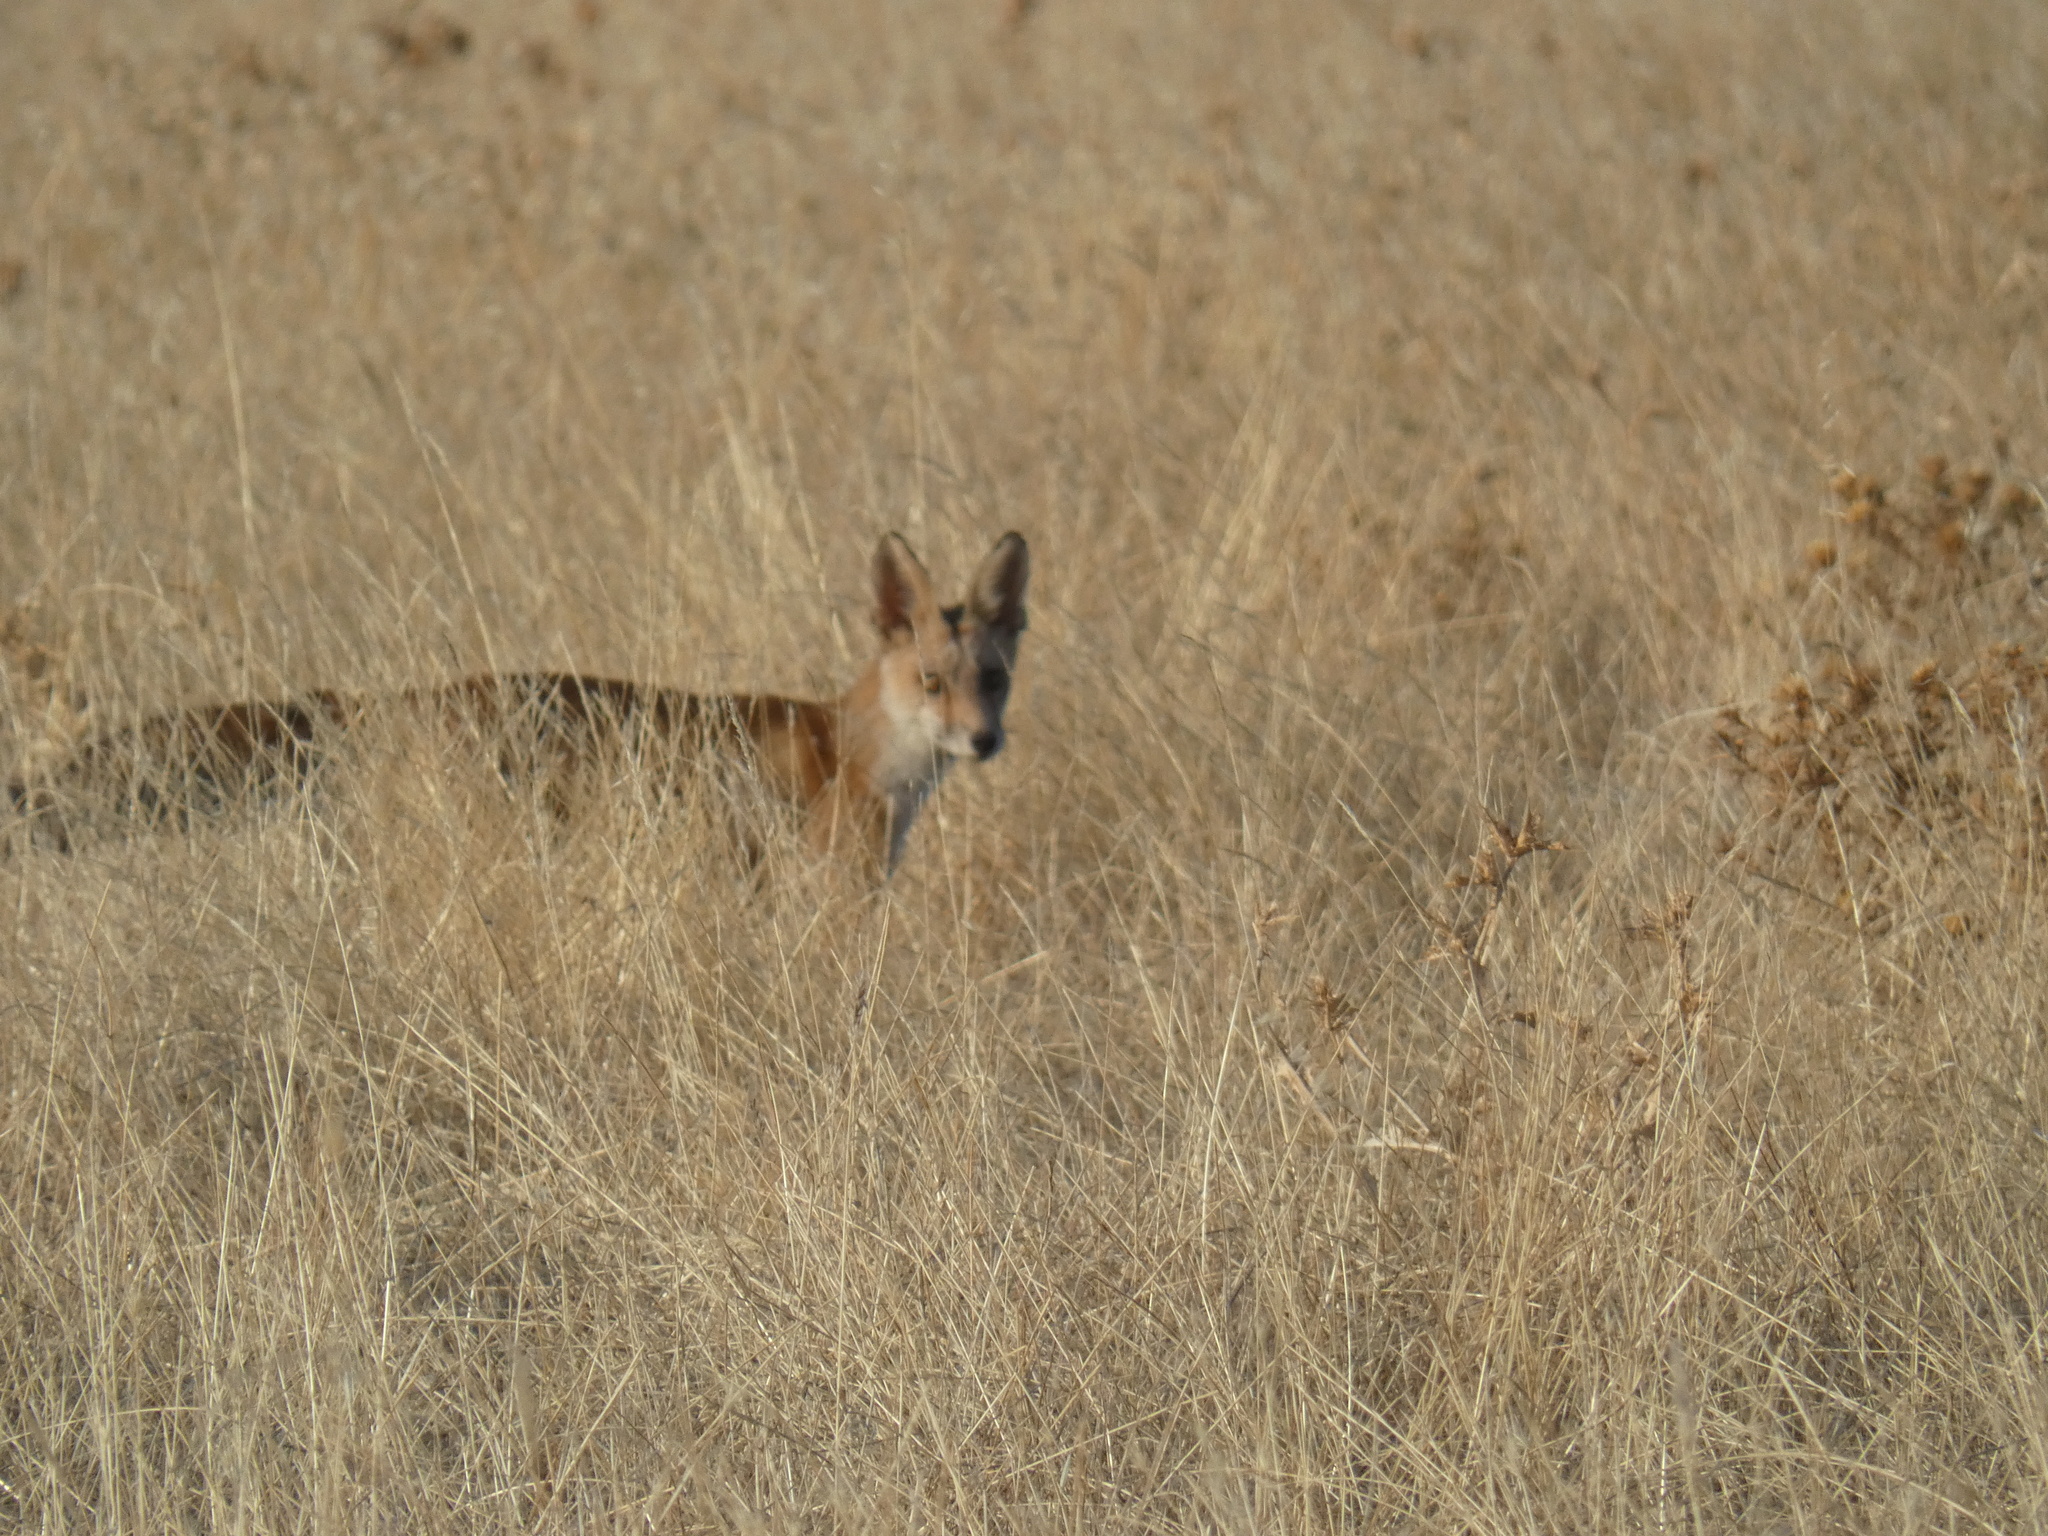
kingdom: Animalia
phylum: Chordata
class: Mammalia
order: Carnivora
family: Canidae
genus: Vulpes
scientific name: Vulpes vulpes
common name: Red fox
